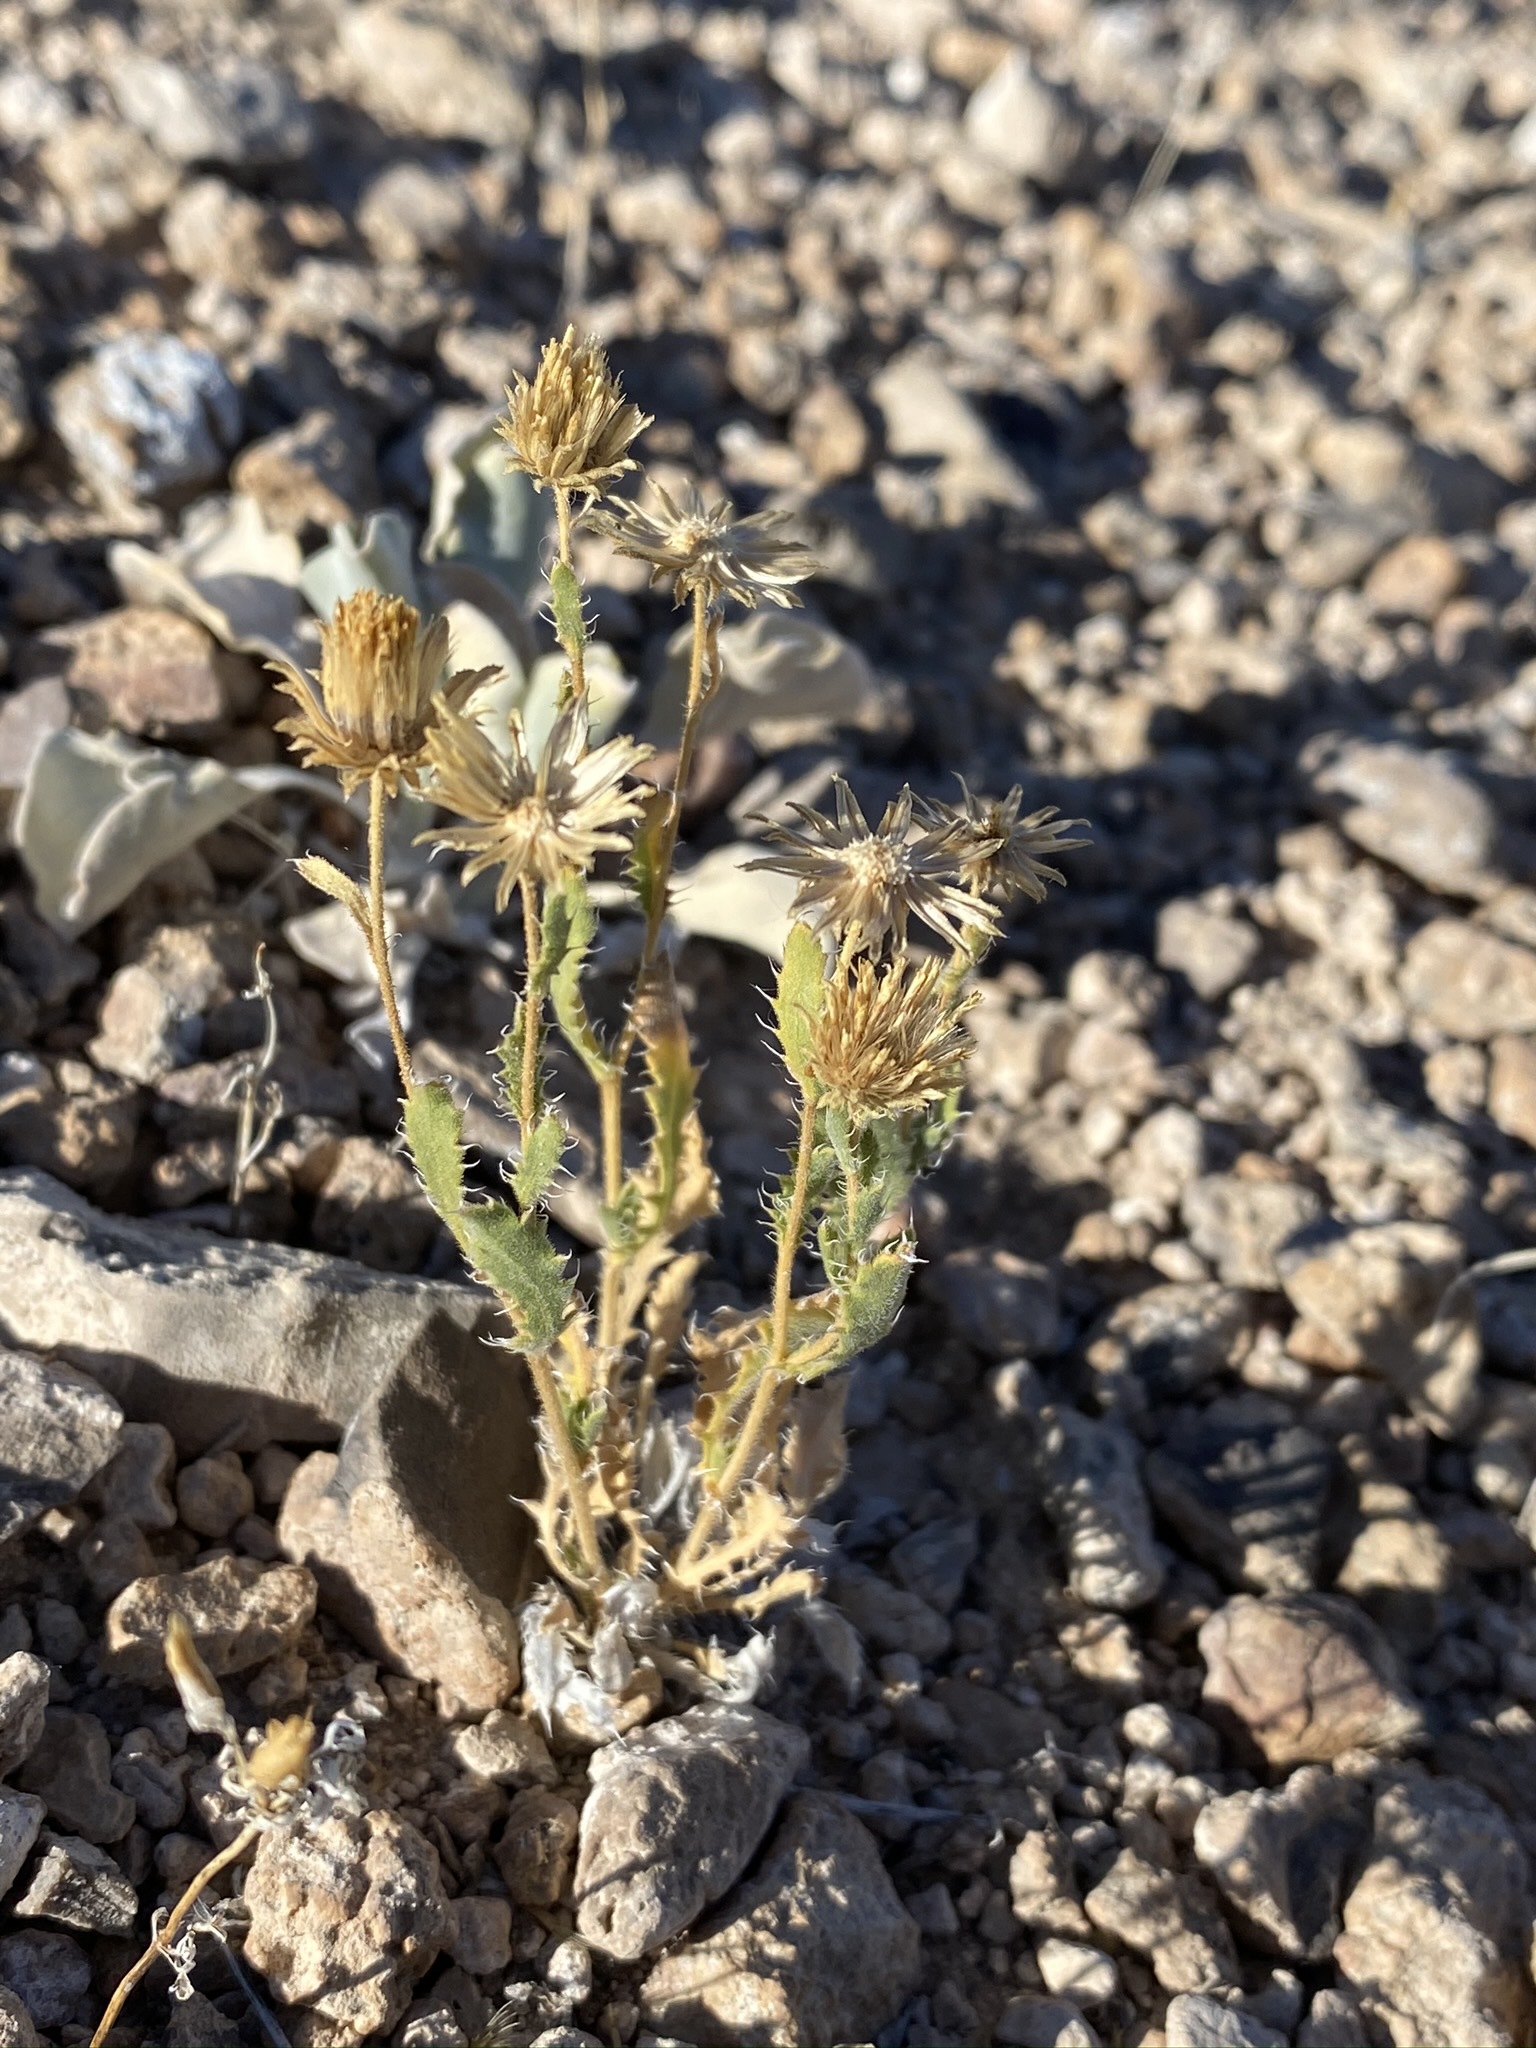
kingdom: Plantae
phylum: Tracheophyta
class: Magnoliopsida
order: Asterales
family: Asteraceae
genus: Xanthisma
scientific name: Xanthisma grindelioides
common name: Goldenweed
